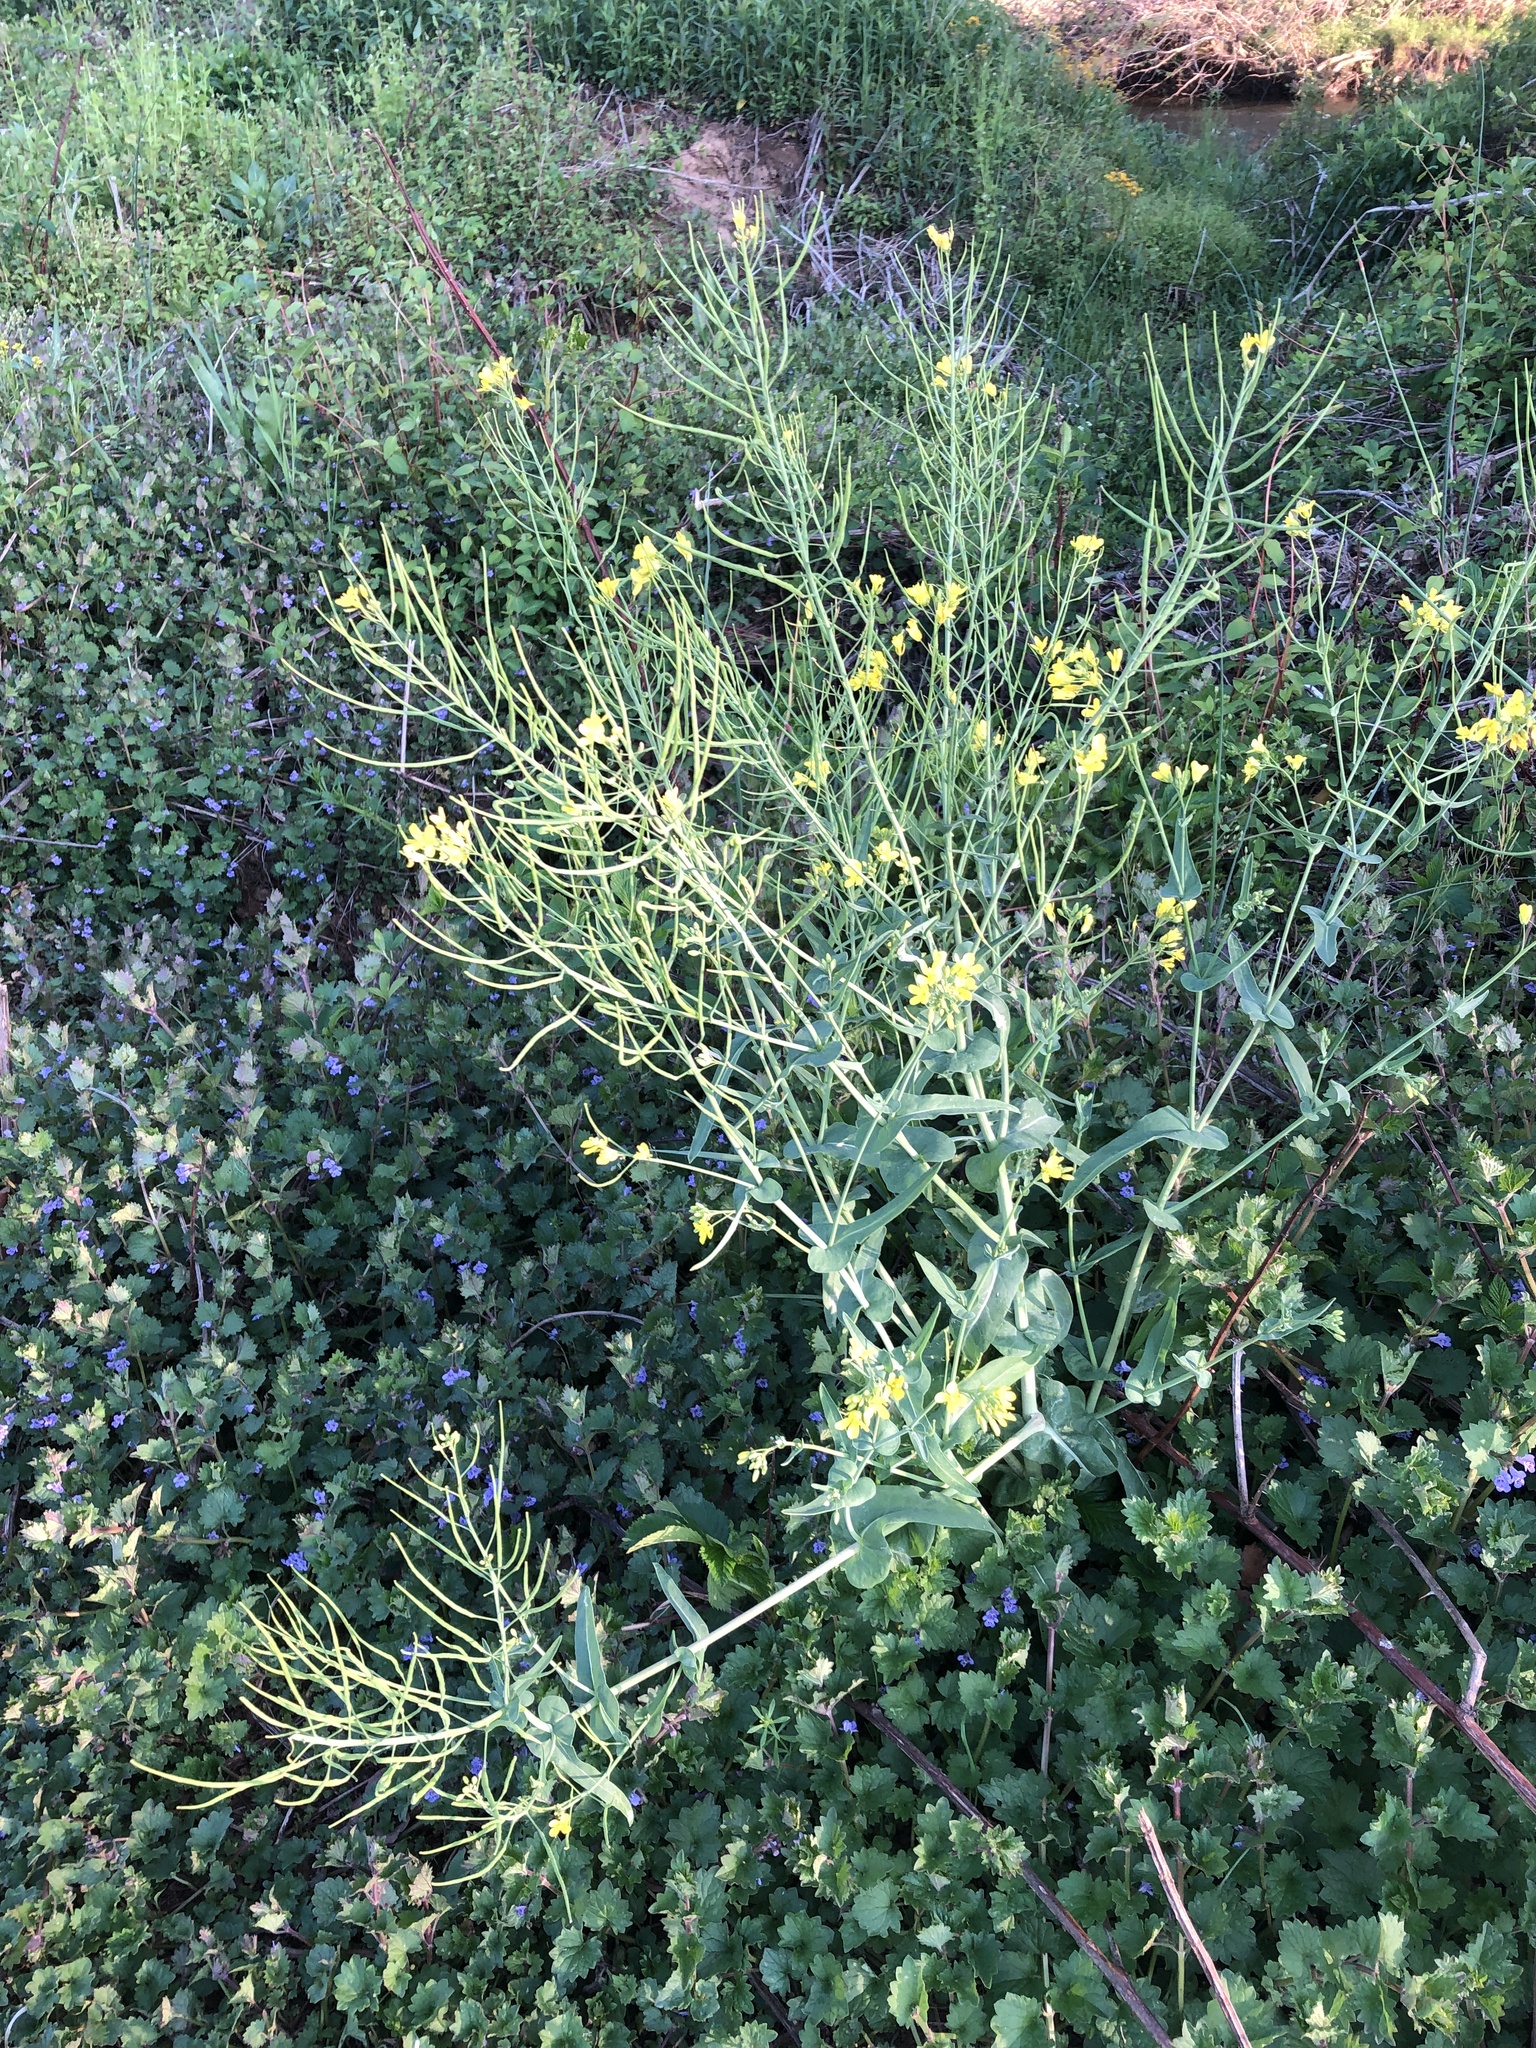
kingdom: Plantae
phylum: Tracheophyta
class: Magnoliopsida
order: Brassicales
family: Brassicaceae
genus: Brassica
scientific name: Brassica rapa
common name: Field mustard
